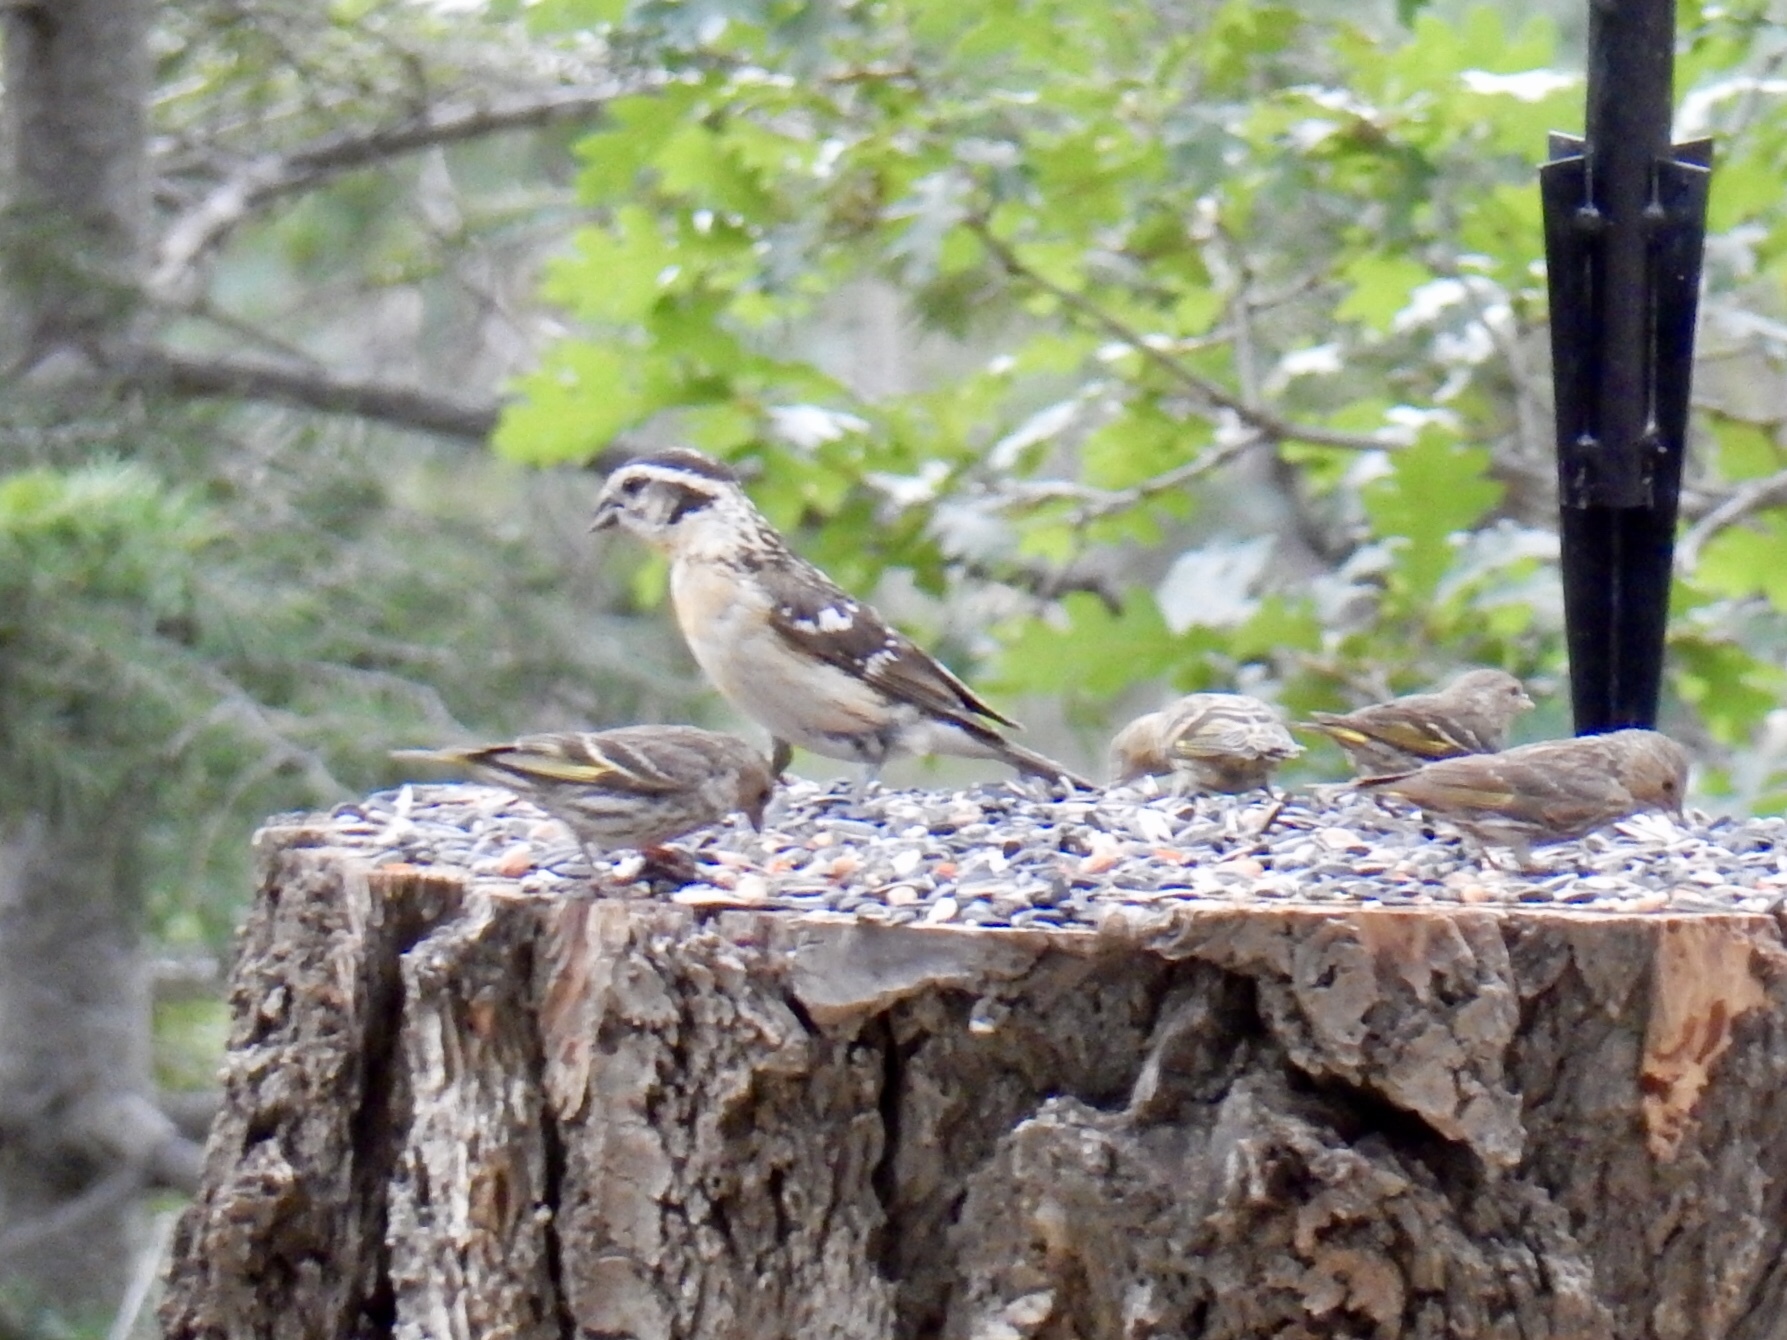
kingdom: Animalia
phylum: Chordata
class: Aves
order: Passeriformes
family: Cardinalidae
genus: Pheucticus
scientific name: Pheucticus melanocephalus
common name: Black-headed grosbeak
